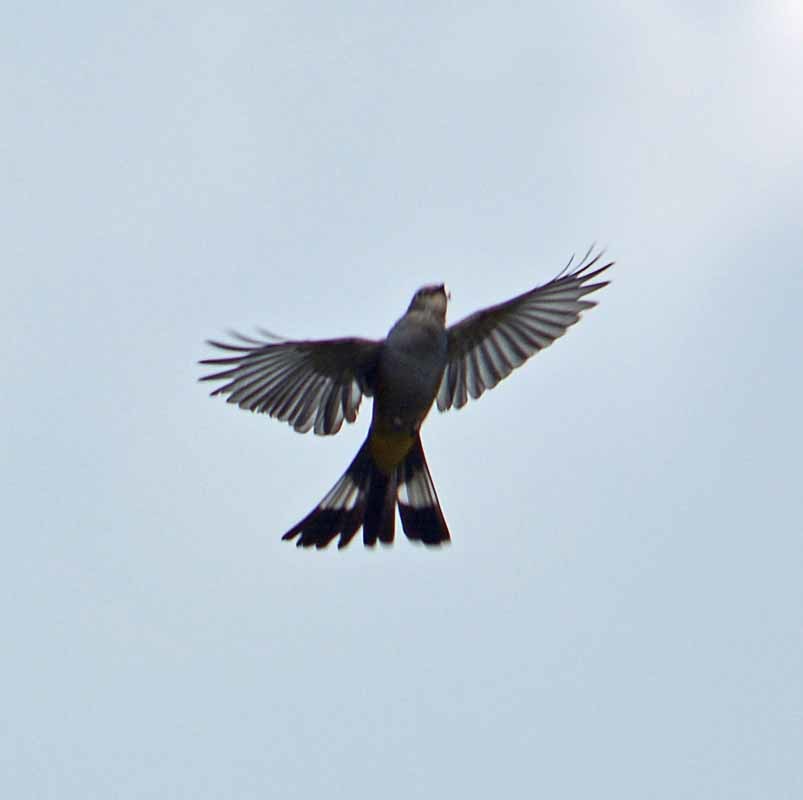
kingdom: Animalia
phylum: Chordata
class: Aves
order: Passeriformes
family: Ptilogonatidae
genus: Ptilogonys
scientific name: Ptilogonys cinereus
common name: Gray silky-flycatcher
